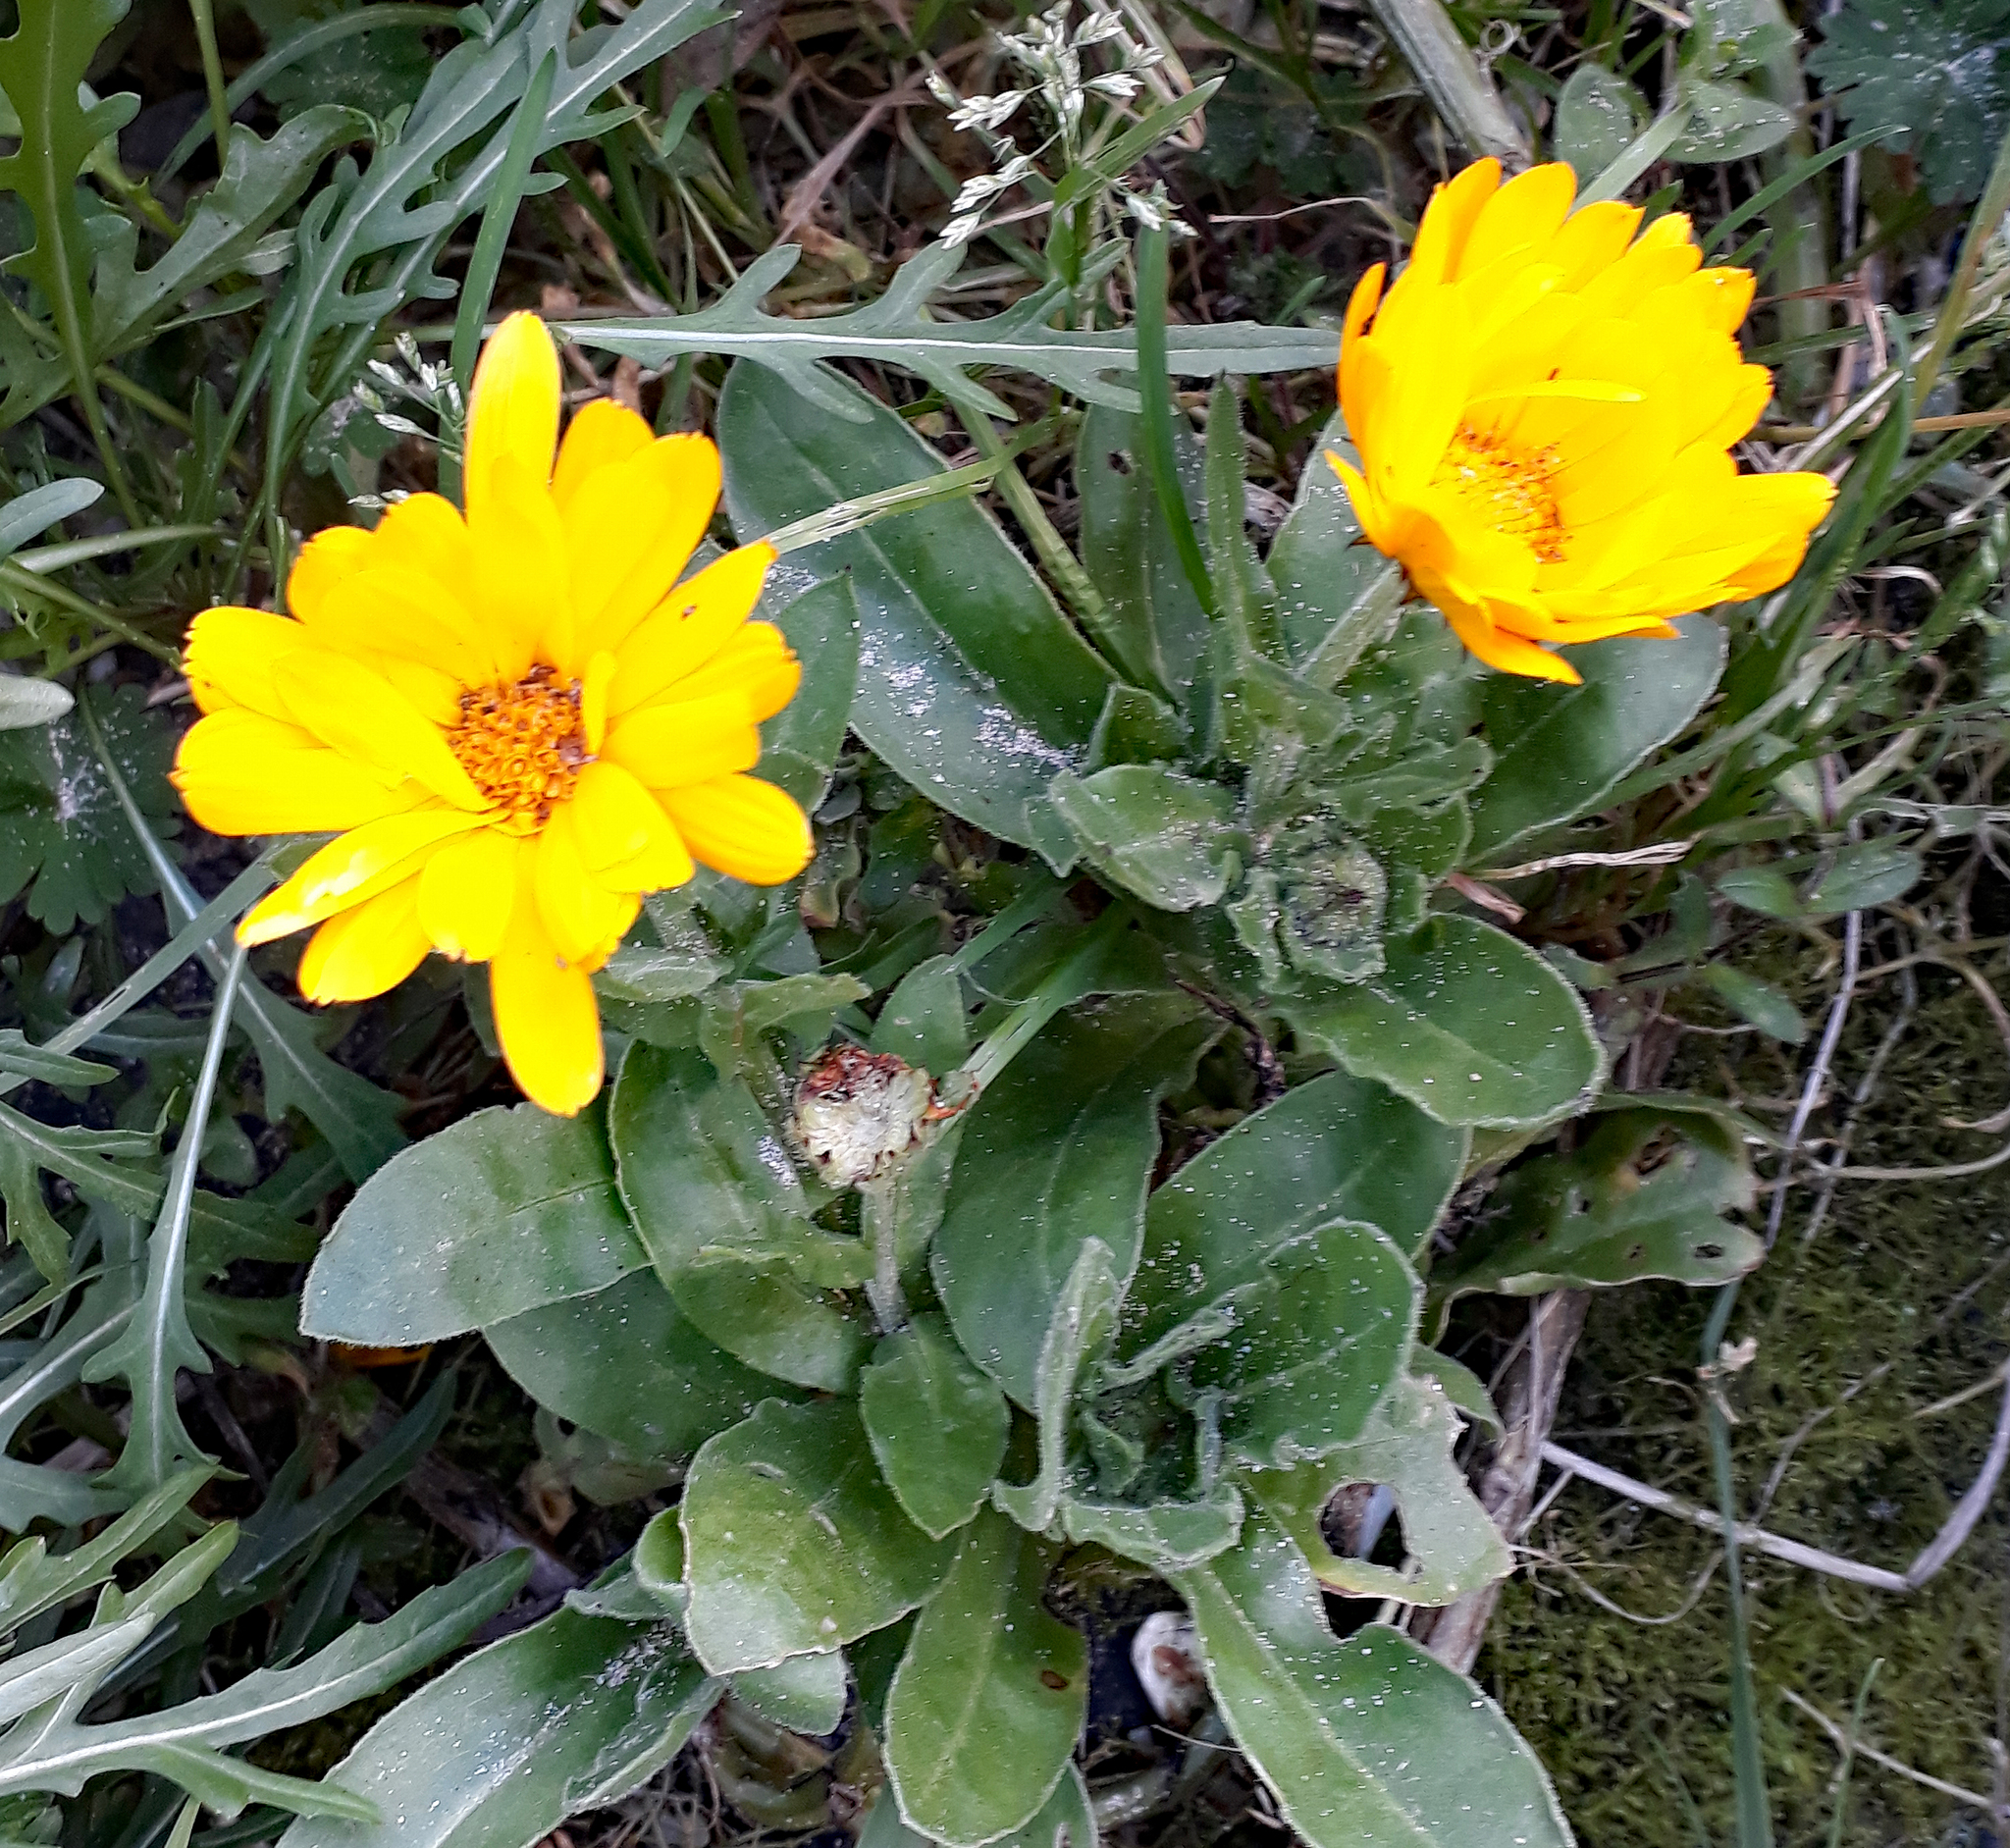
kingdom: Plantae
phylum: Tracheophyta
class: Magnoliopsida
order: Asterales
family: Asteraceae
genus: Calendula
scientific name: Calendula officinalis
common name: Pot marigold
